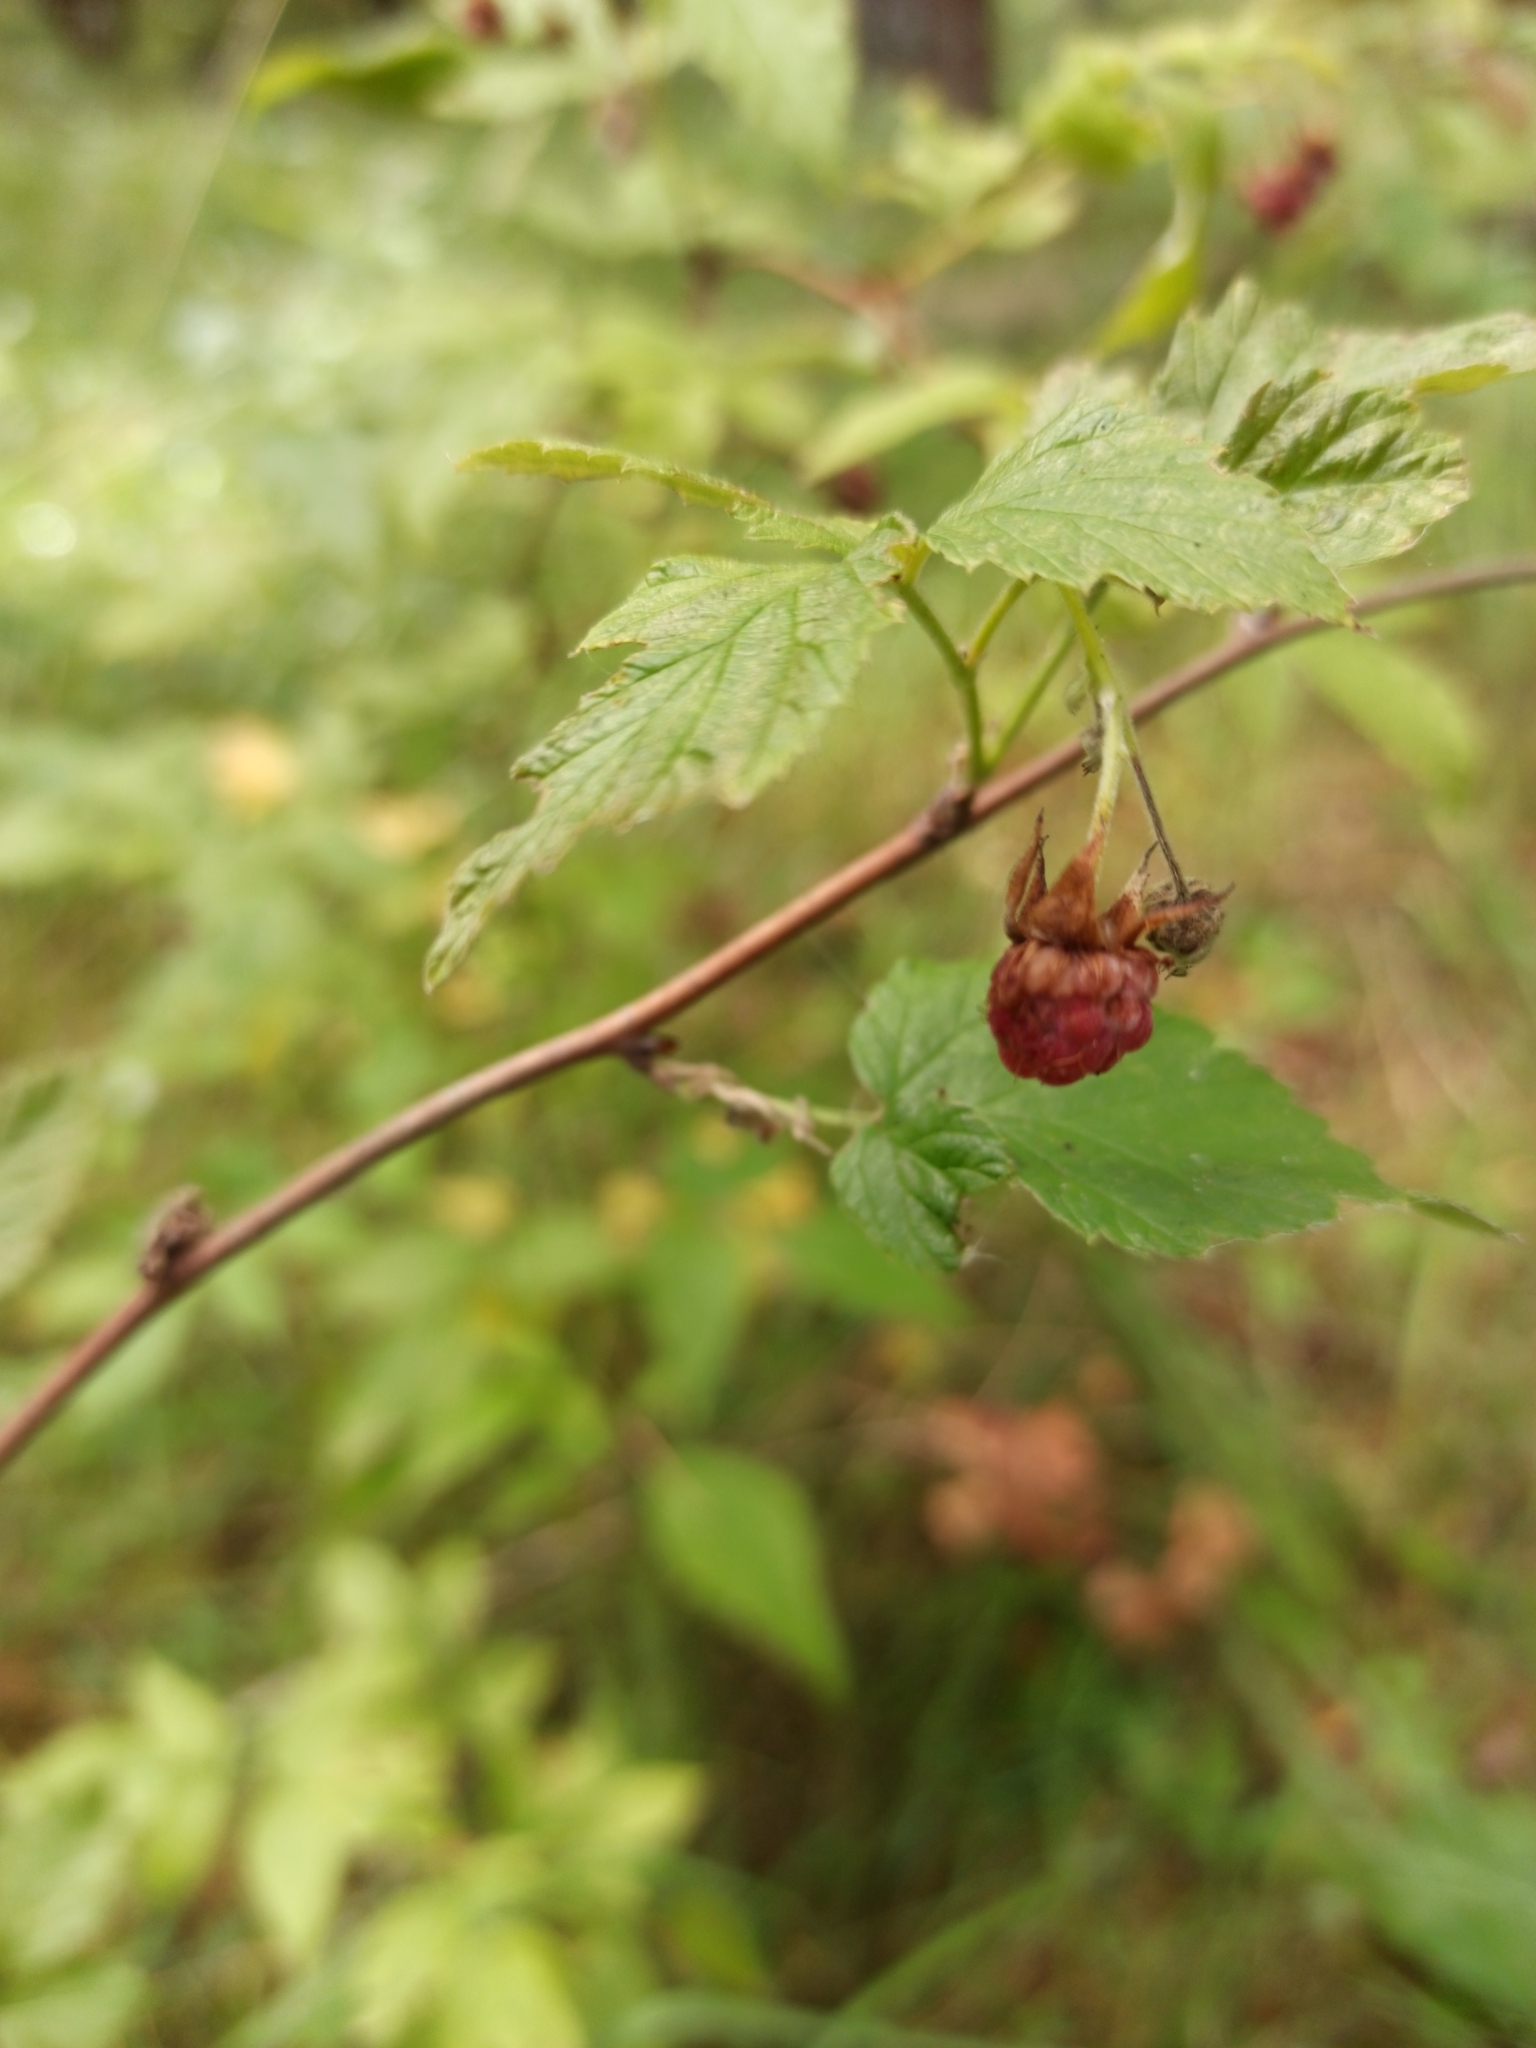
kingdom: Plantae
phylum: Tracheophyta
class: Magnoliopsida
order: Rosales
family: Rosaceae
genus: Rubus
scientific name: Rubus idaeus
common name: Raspberry
